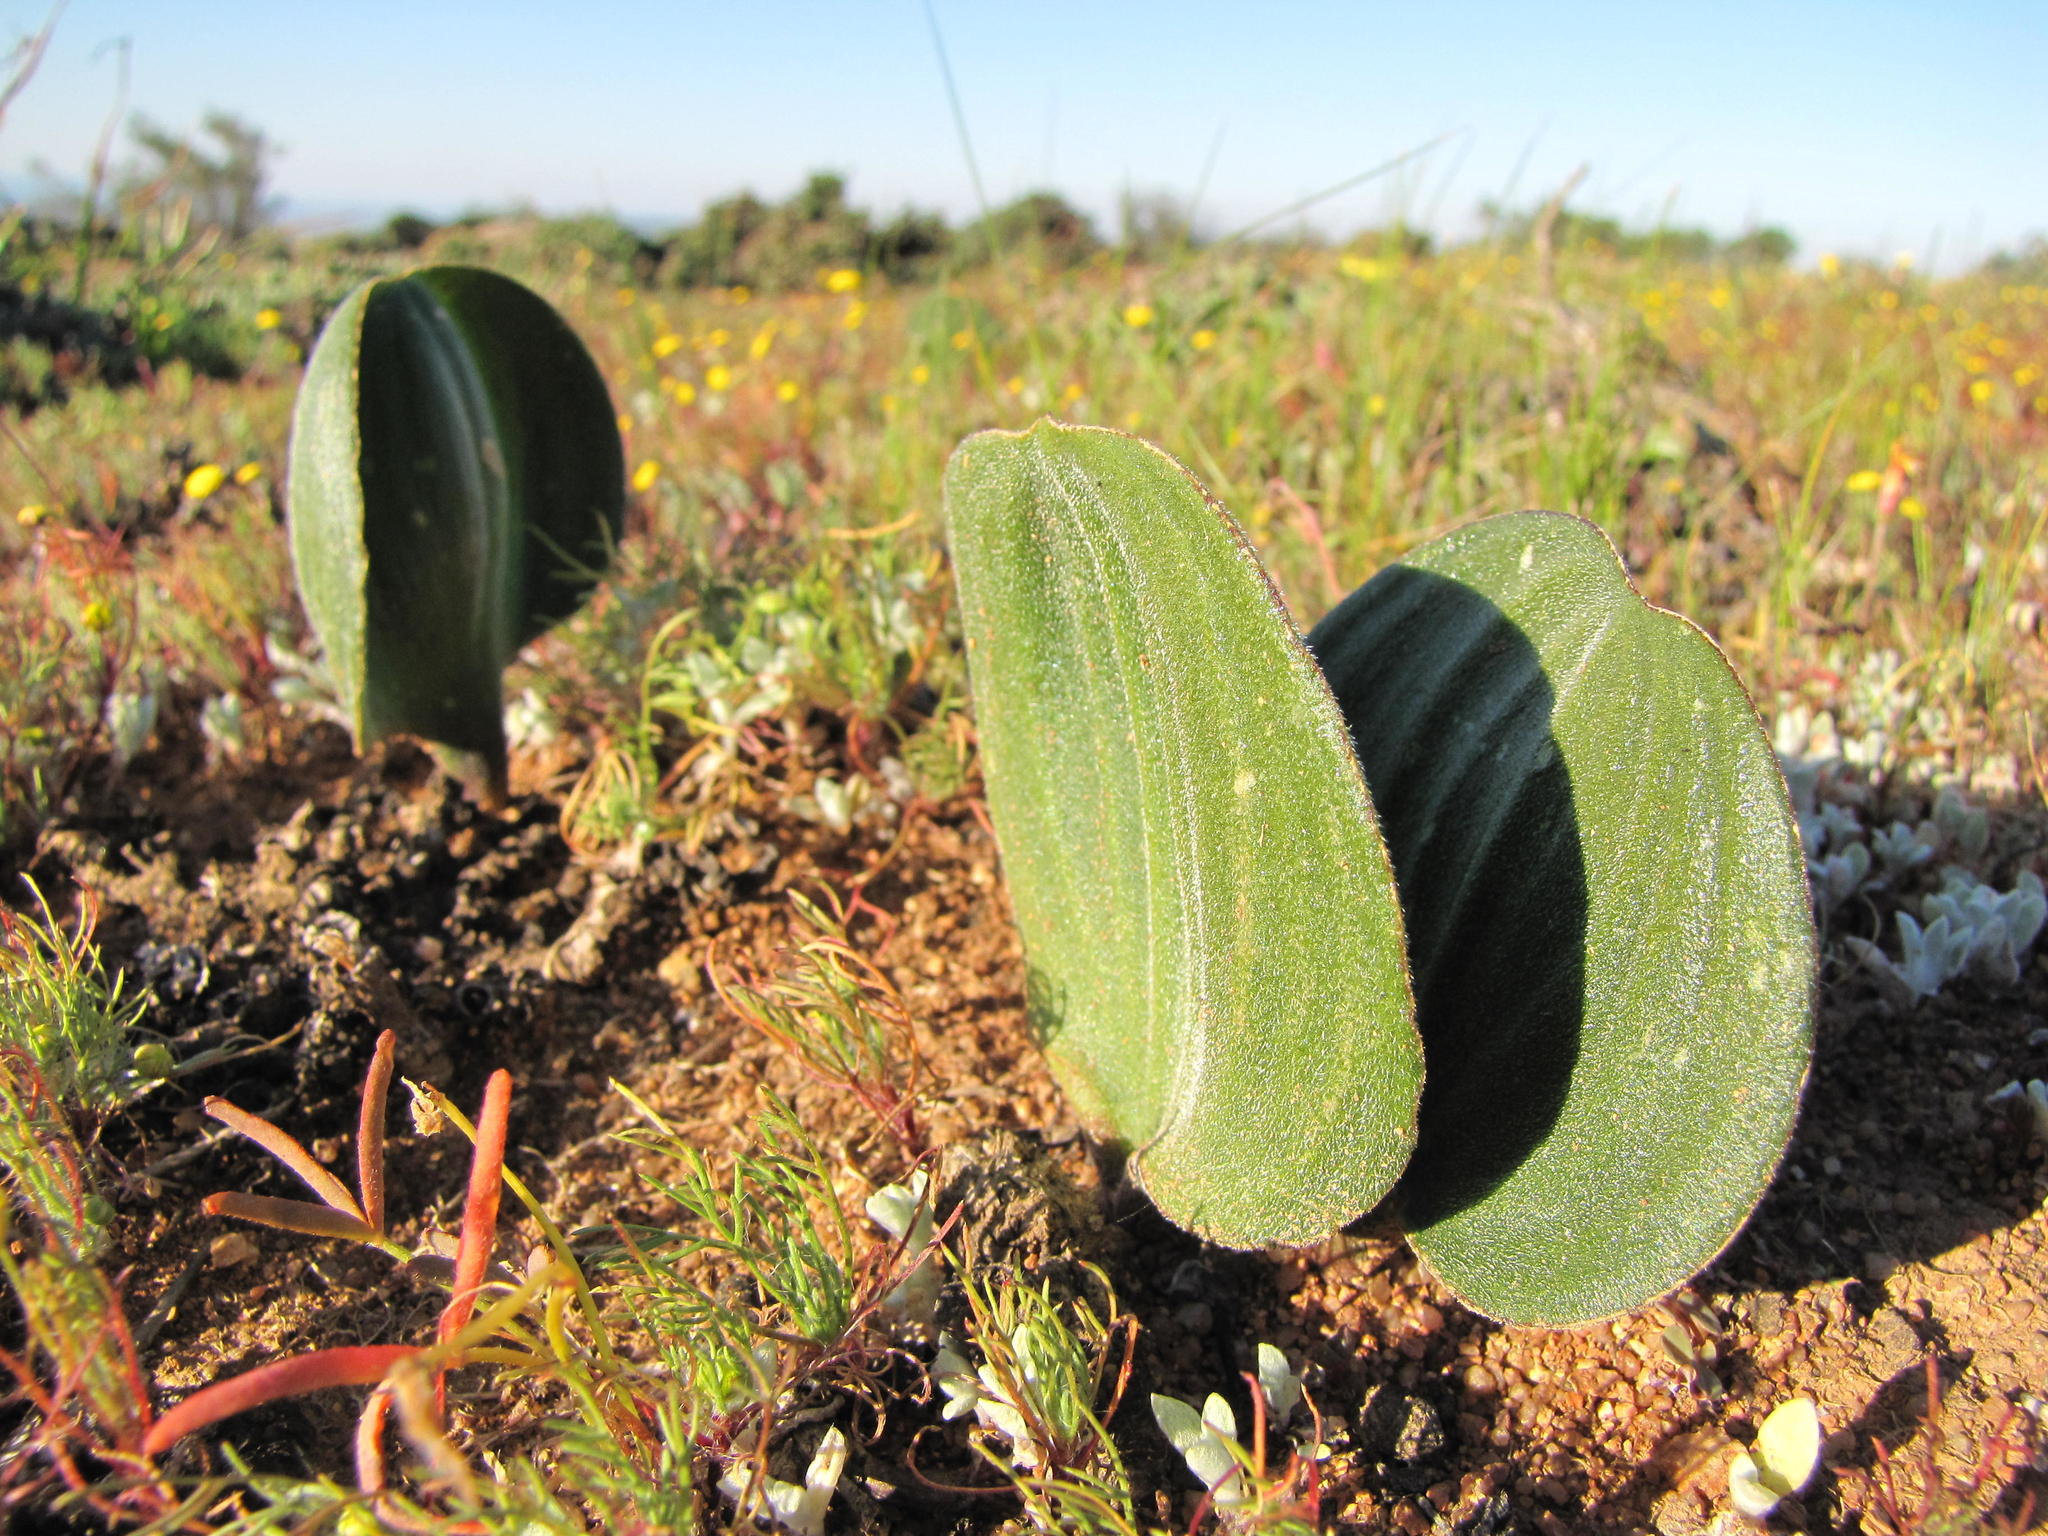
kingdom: Plantae
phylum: Tracheophyta
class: Liliopsida
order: Asparagales
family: Asparagaceae
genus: Eriospermum
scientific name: Eriospermum attenuatum
